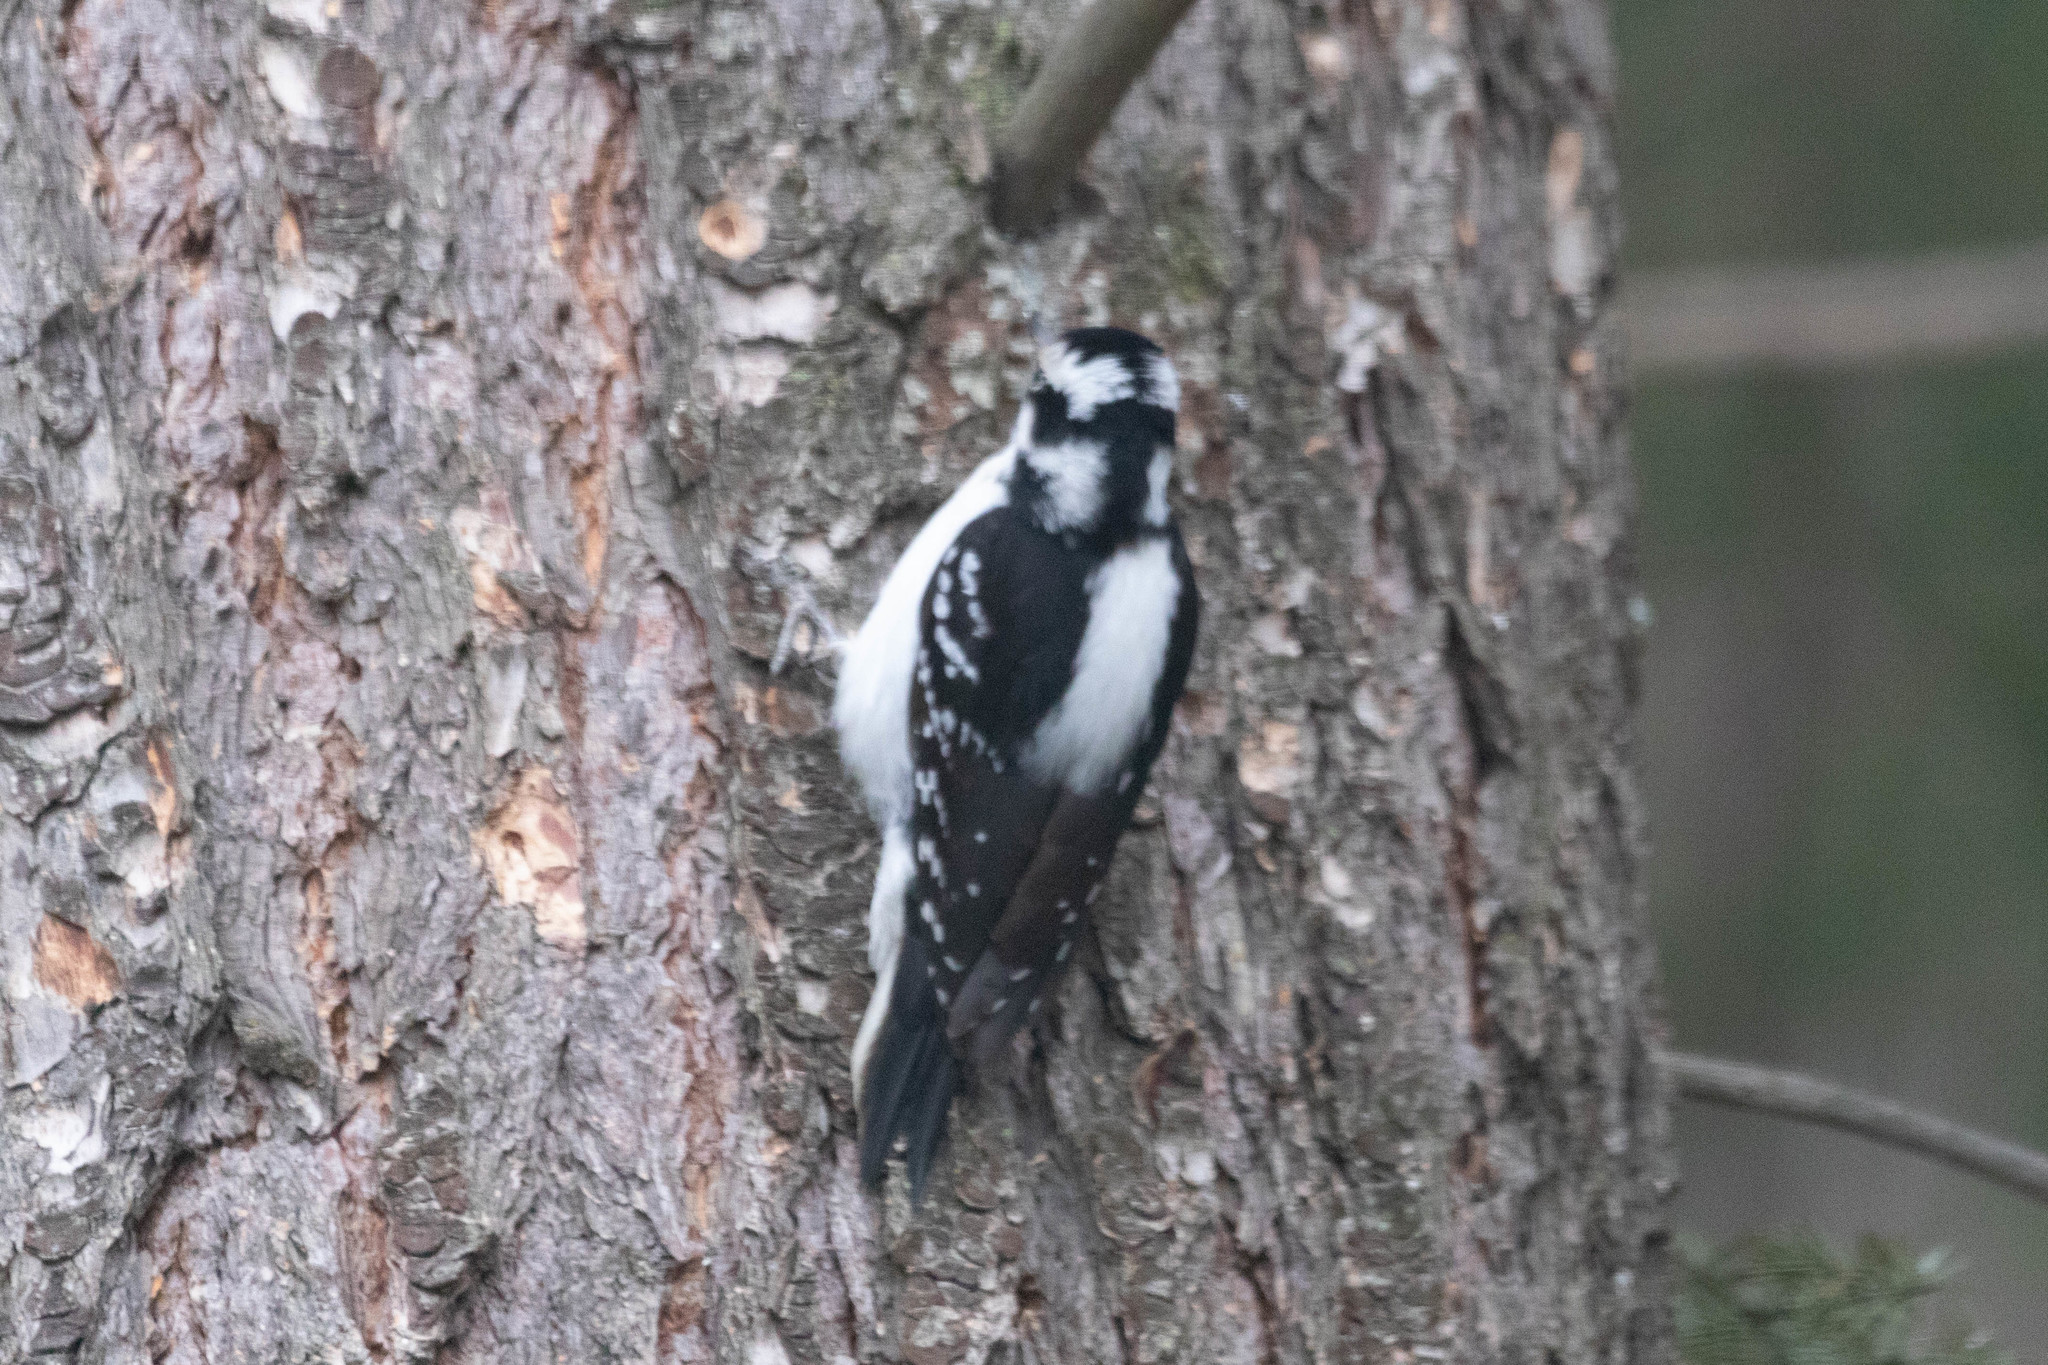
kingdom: Animalia
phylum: Chordata
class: Aves
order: Piciformes
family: Picidae
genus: Dryobates
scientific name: Dryobates pubescens
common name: Downy woodpecker
